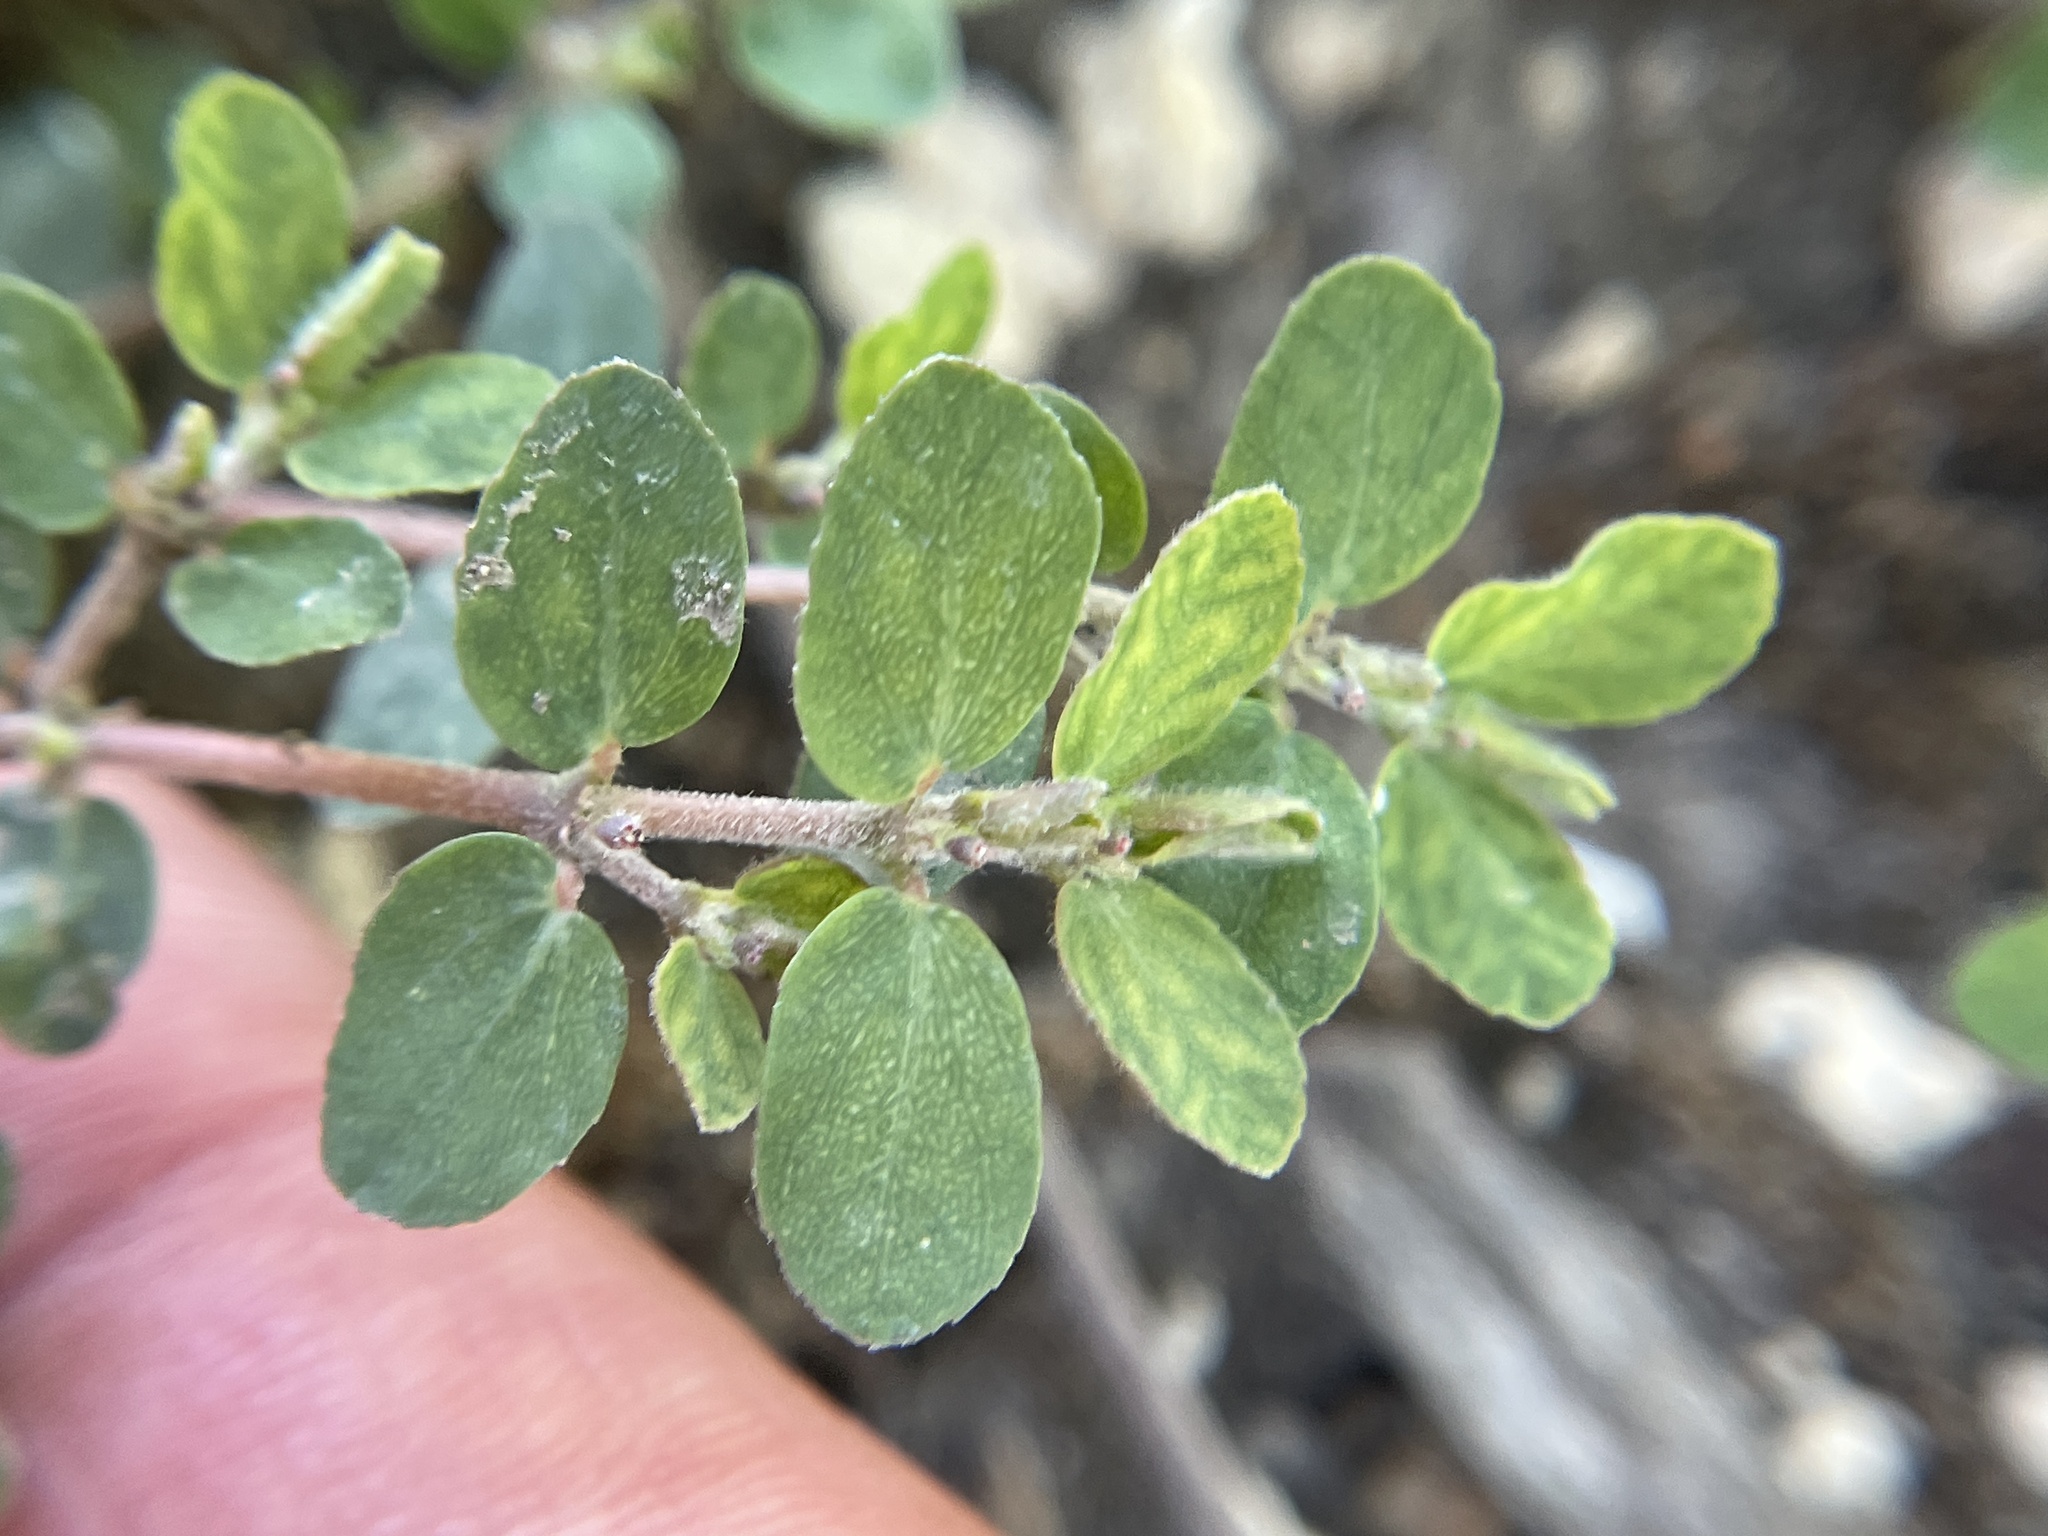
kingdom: Plantae
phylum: Tracheophyta
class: Magnoliopsida
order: Malpighiales
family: Euphorbiaceae
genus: Euphorbia
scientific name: Euphorbia prostrata
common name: Prostrate sandmat
